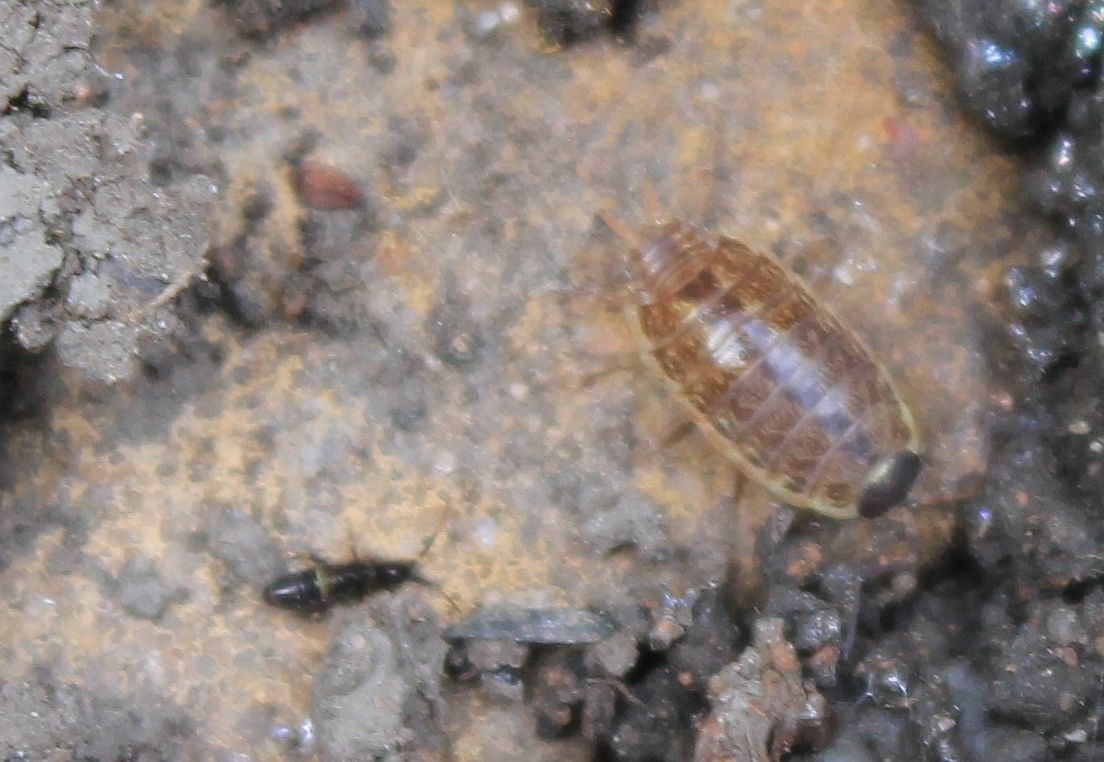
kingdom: Animalia
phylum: Arthropoda
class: Malacostraca
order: Isopoda
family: Philosciidae
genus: Philoscia
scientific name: Philoscia muscorum
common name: Common striped woodlouse
